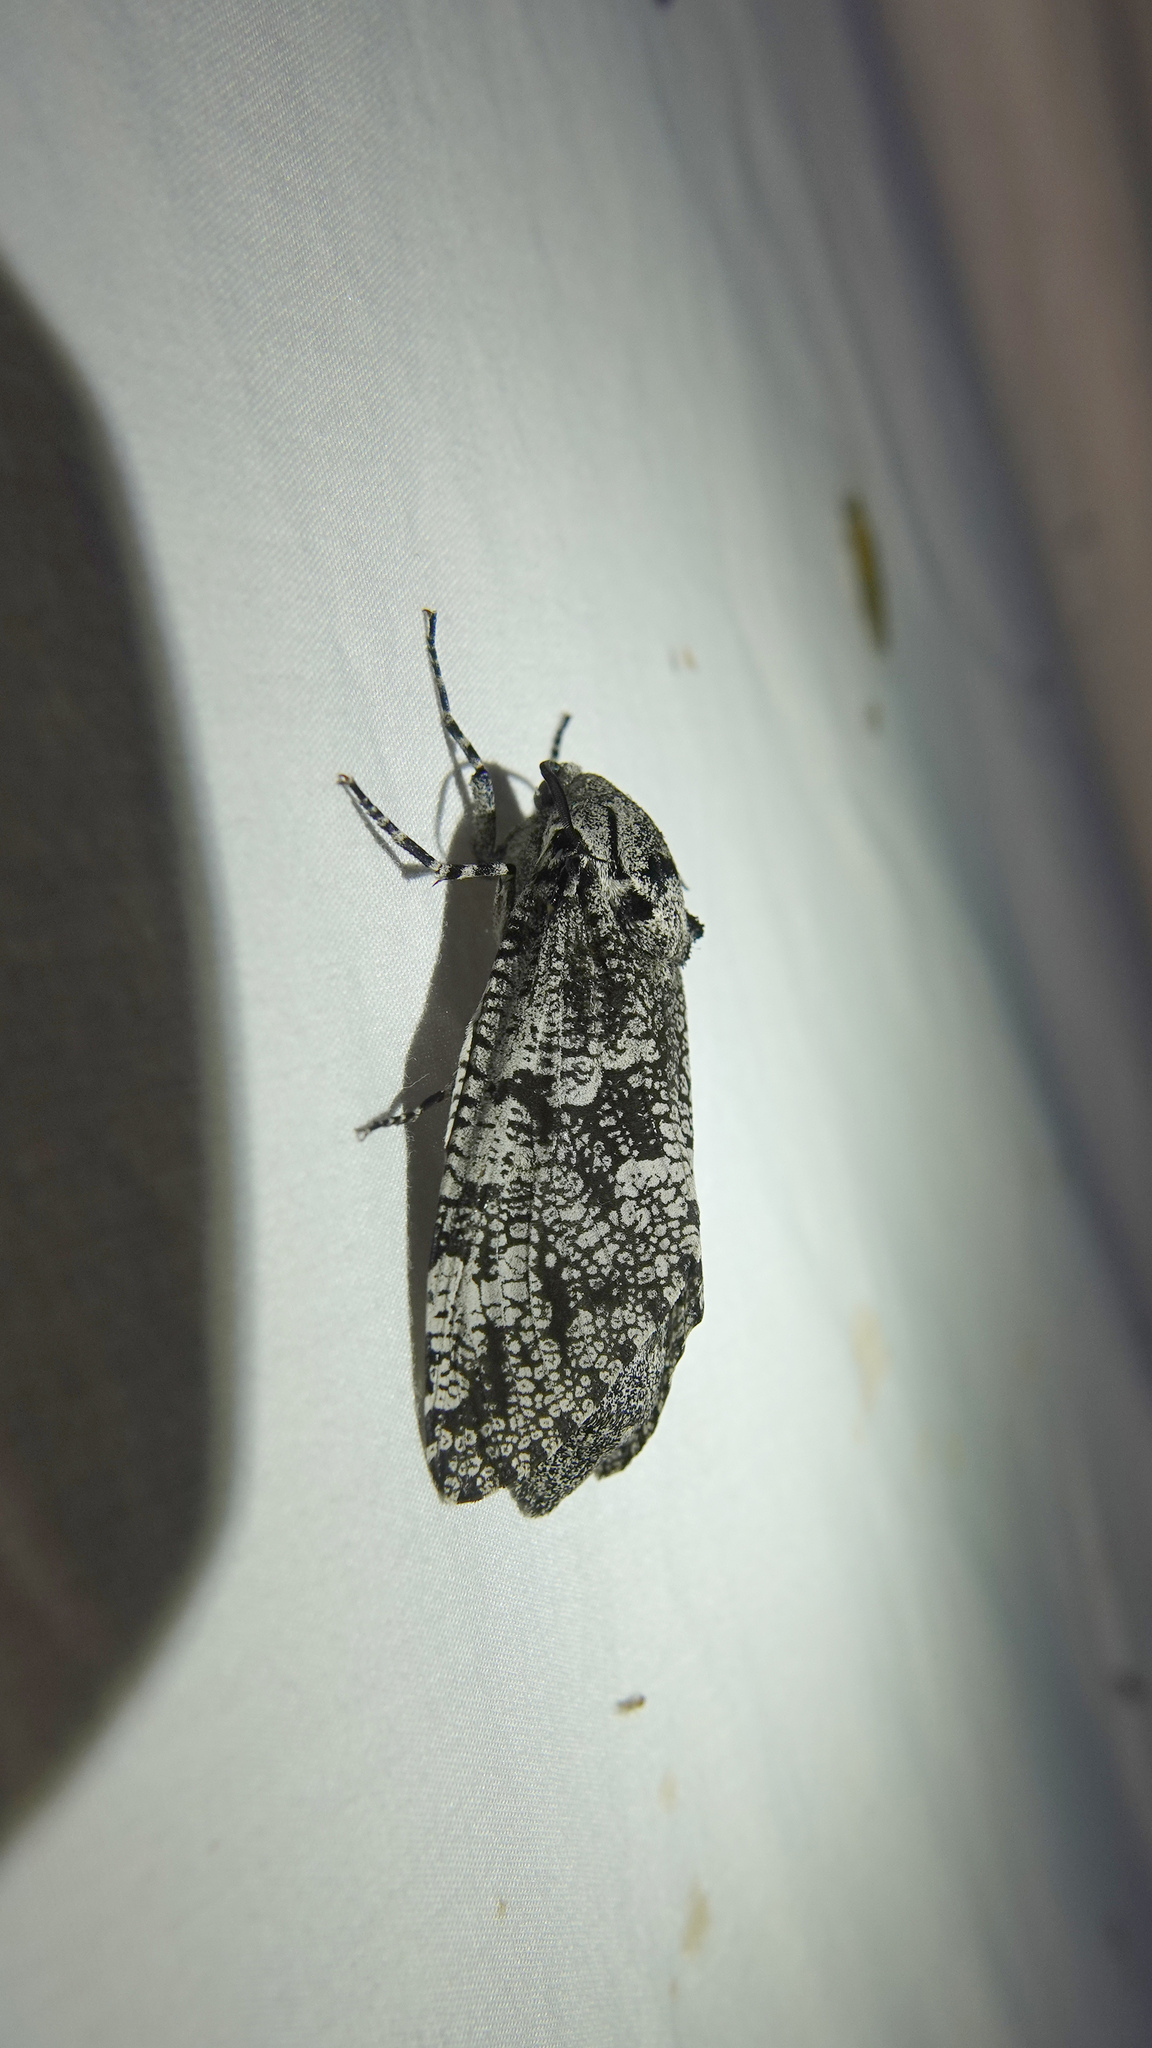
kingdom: Animalia
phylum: Arthropoda
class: Insecta
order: Lepidoptera
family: Cossidae
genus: Prionoxystus
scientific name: Prionoxystus robiniae
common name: Carpenterworm
